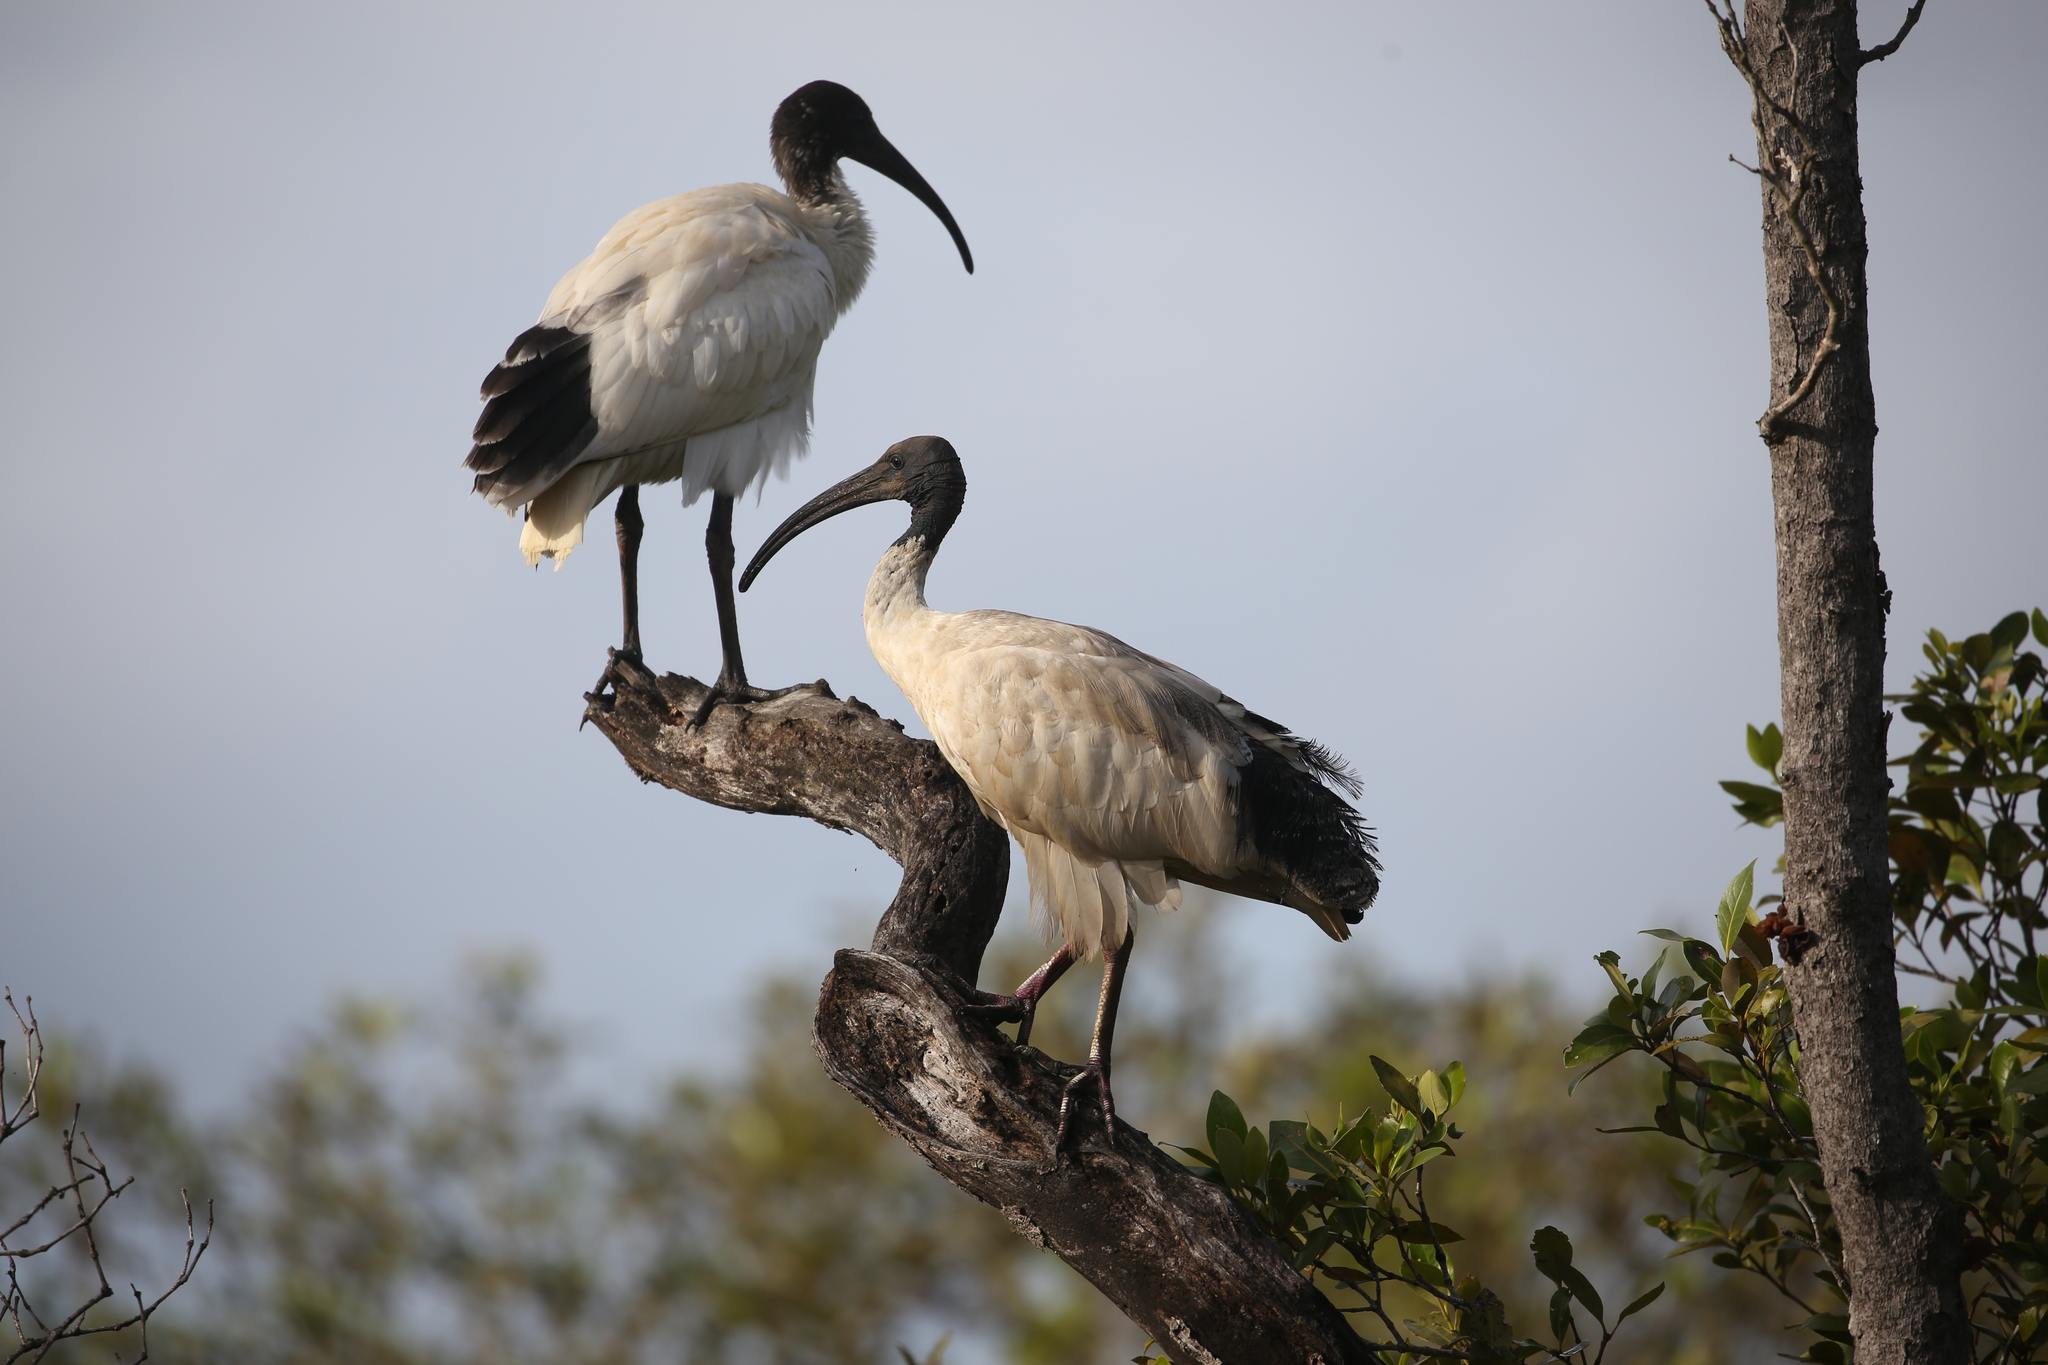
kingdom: Animalia
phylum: Chordata
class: Aves
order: Pelecaniformes
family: Threskiornithidae
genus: Threskiornis
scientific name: Threskiornis molucca
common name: Australian white ibis
